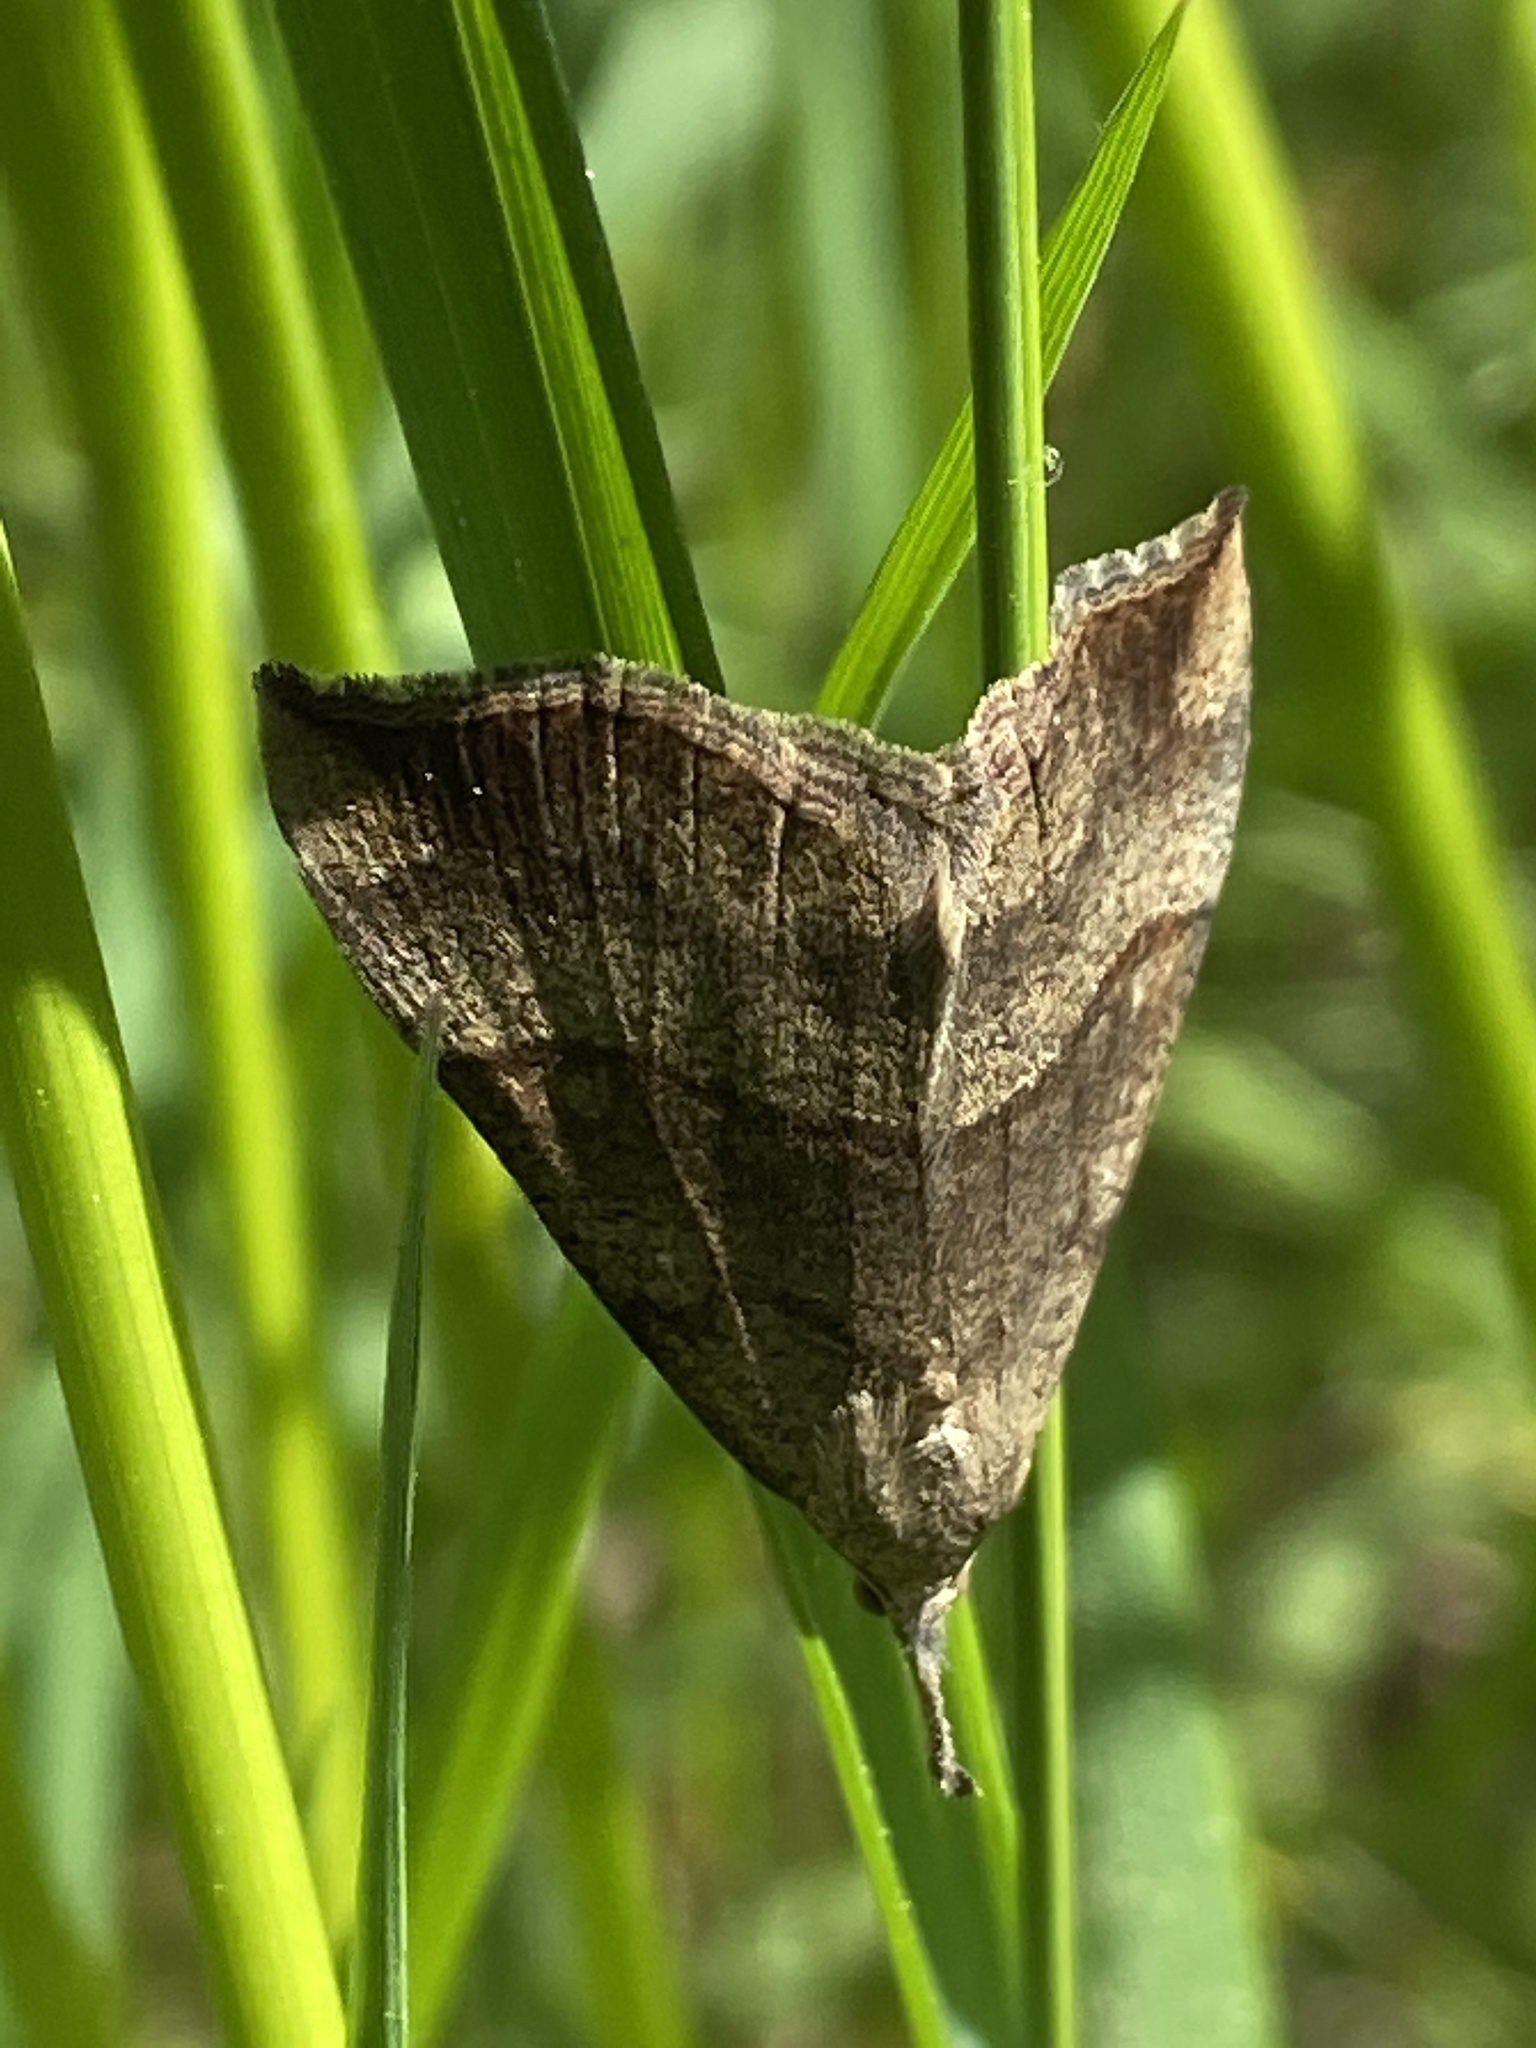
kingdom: Animalia
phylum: Arthropoda
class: Insecta
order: Lepidoptera
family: Erebidae
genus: Hypena
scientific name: Hypena proboscidalis
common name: Snout
